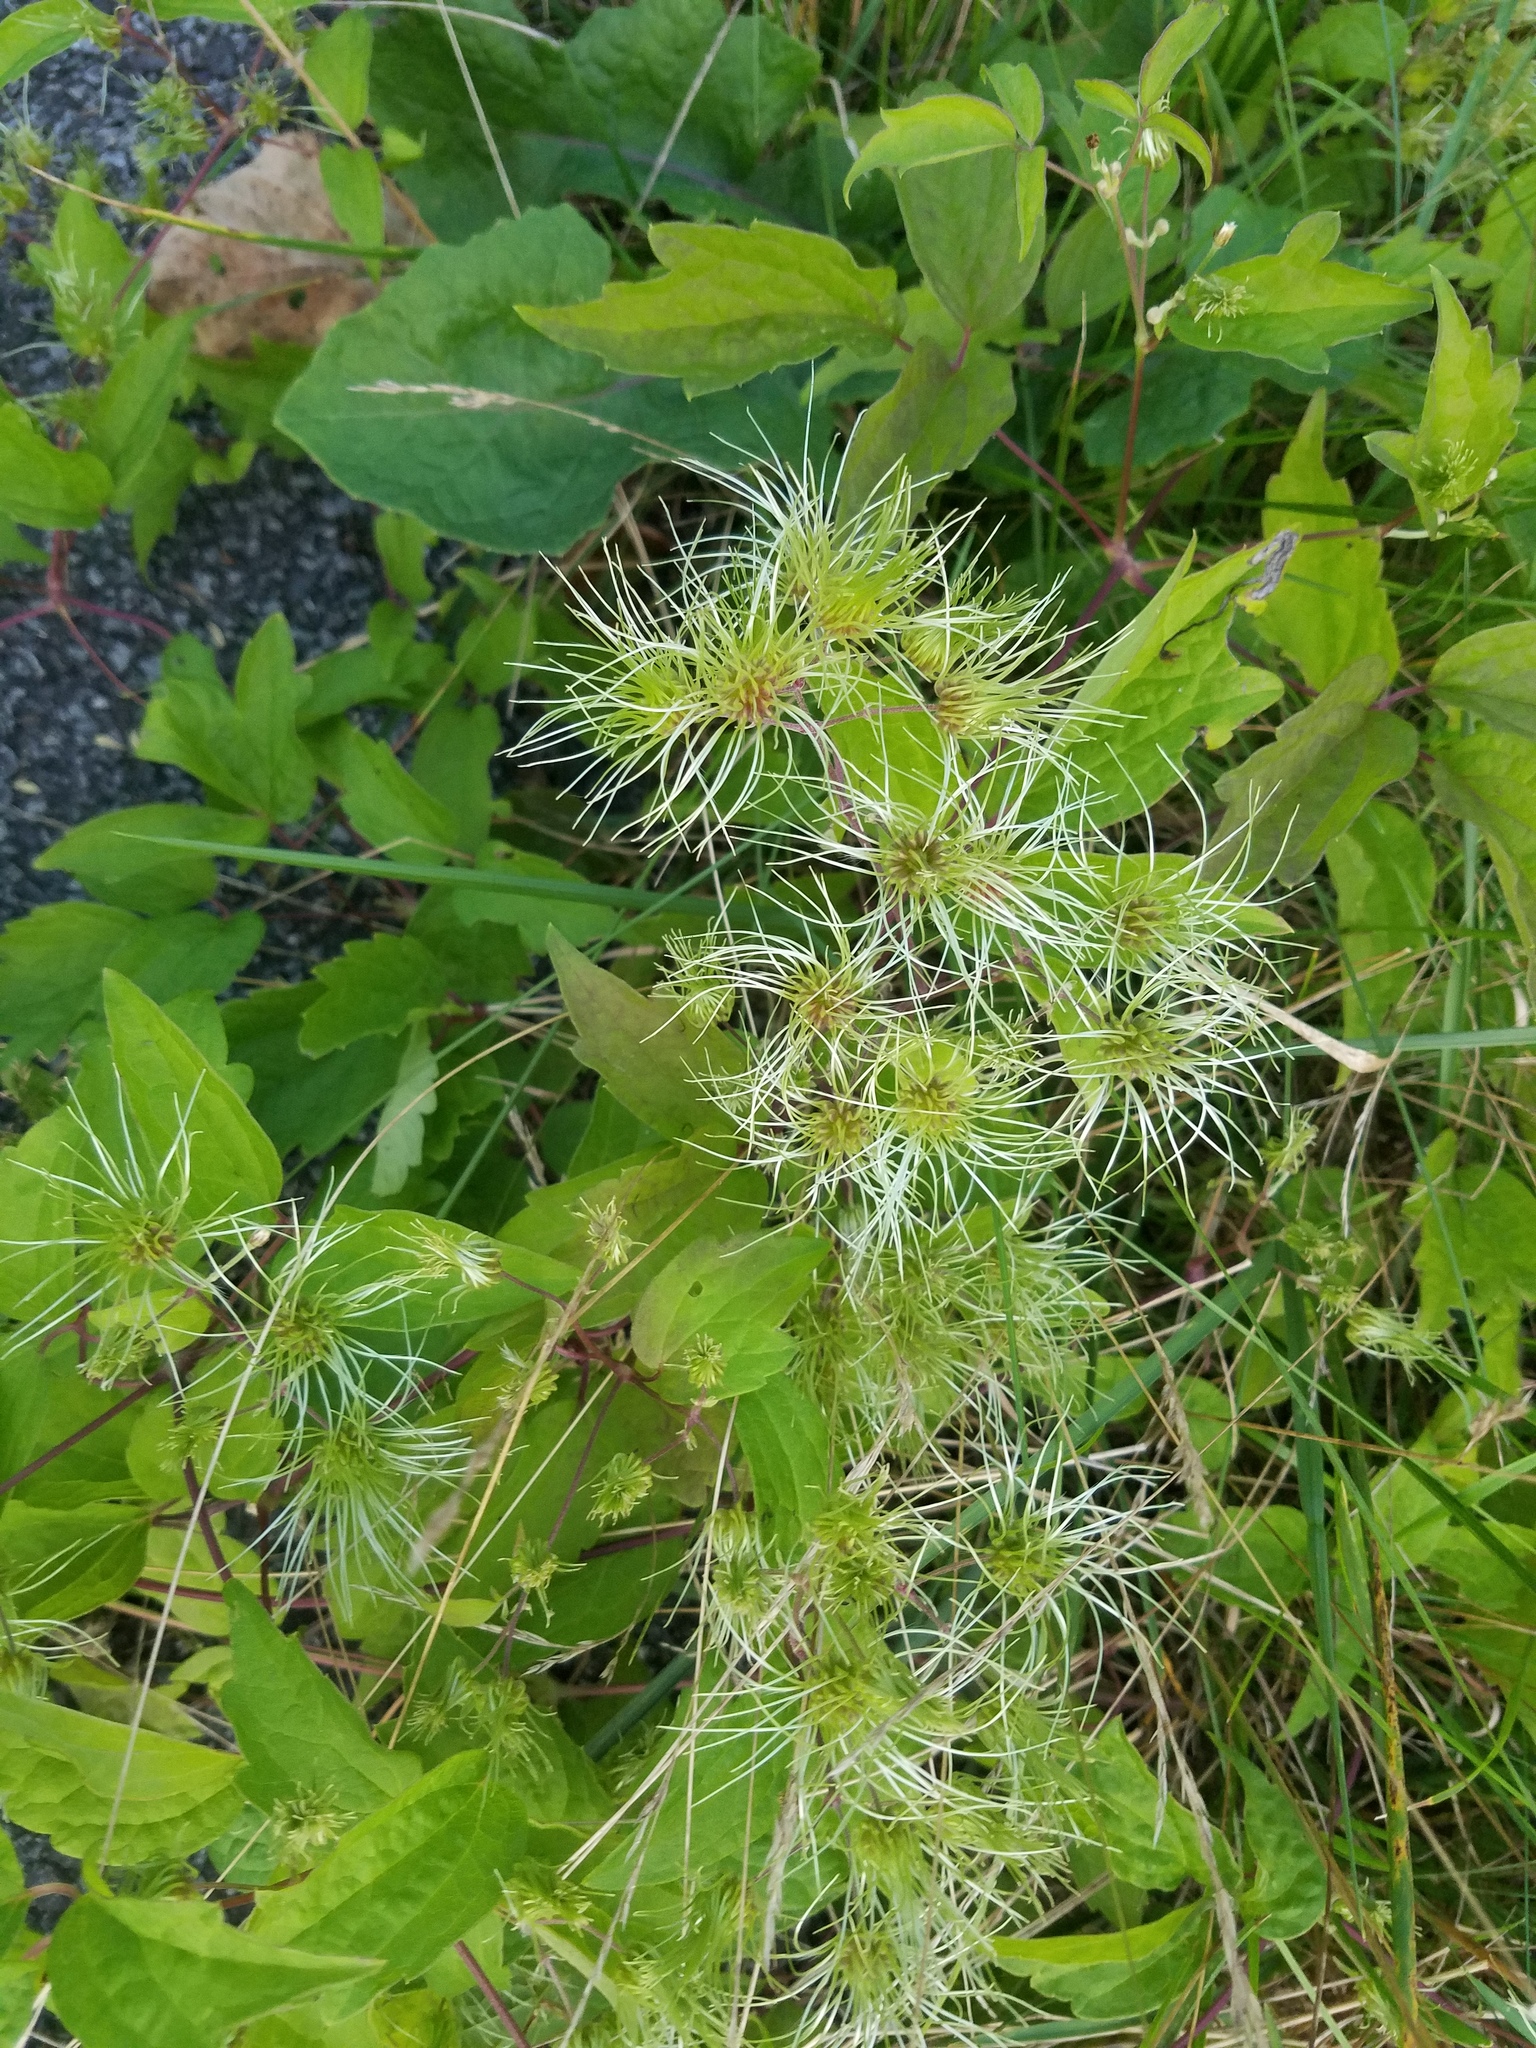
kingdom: Plantae
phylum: Tracheophyta
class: Magnoliopsida
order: Ranunculales
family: Ranunculaceae
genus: Clematis
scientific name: Clematis virginiana
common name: Virgin's-bower
